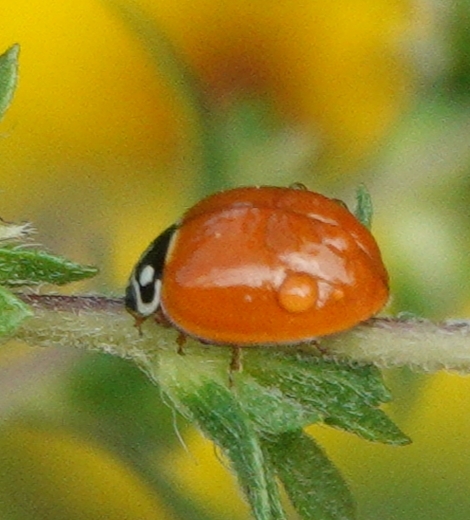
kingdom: Animalia
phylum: Arthropoda
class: Insecta
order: Coleoptera
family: Coccinellidae
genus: Cycloneda
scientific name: Cycloneda sanguinea
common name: Ladybird beetle
